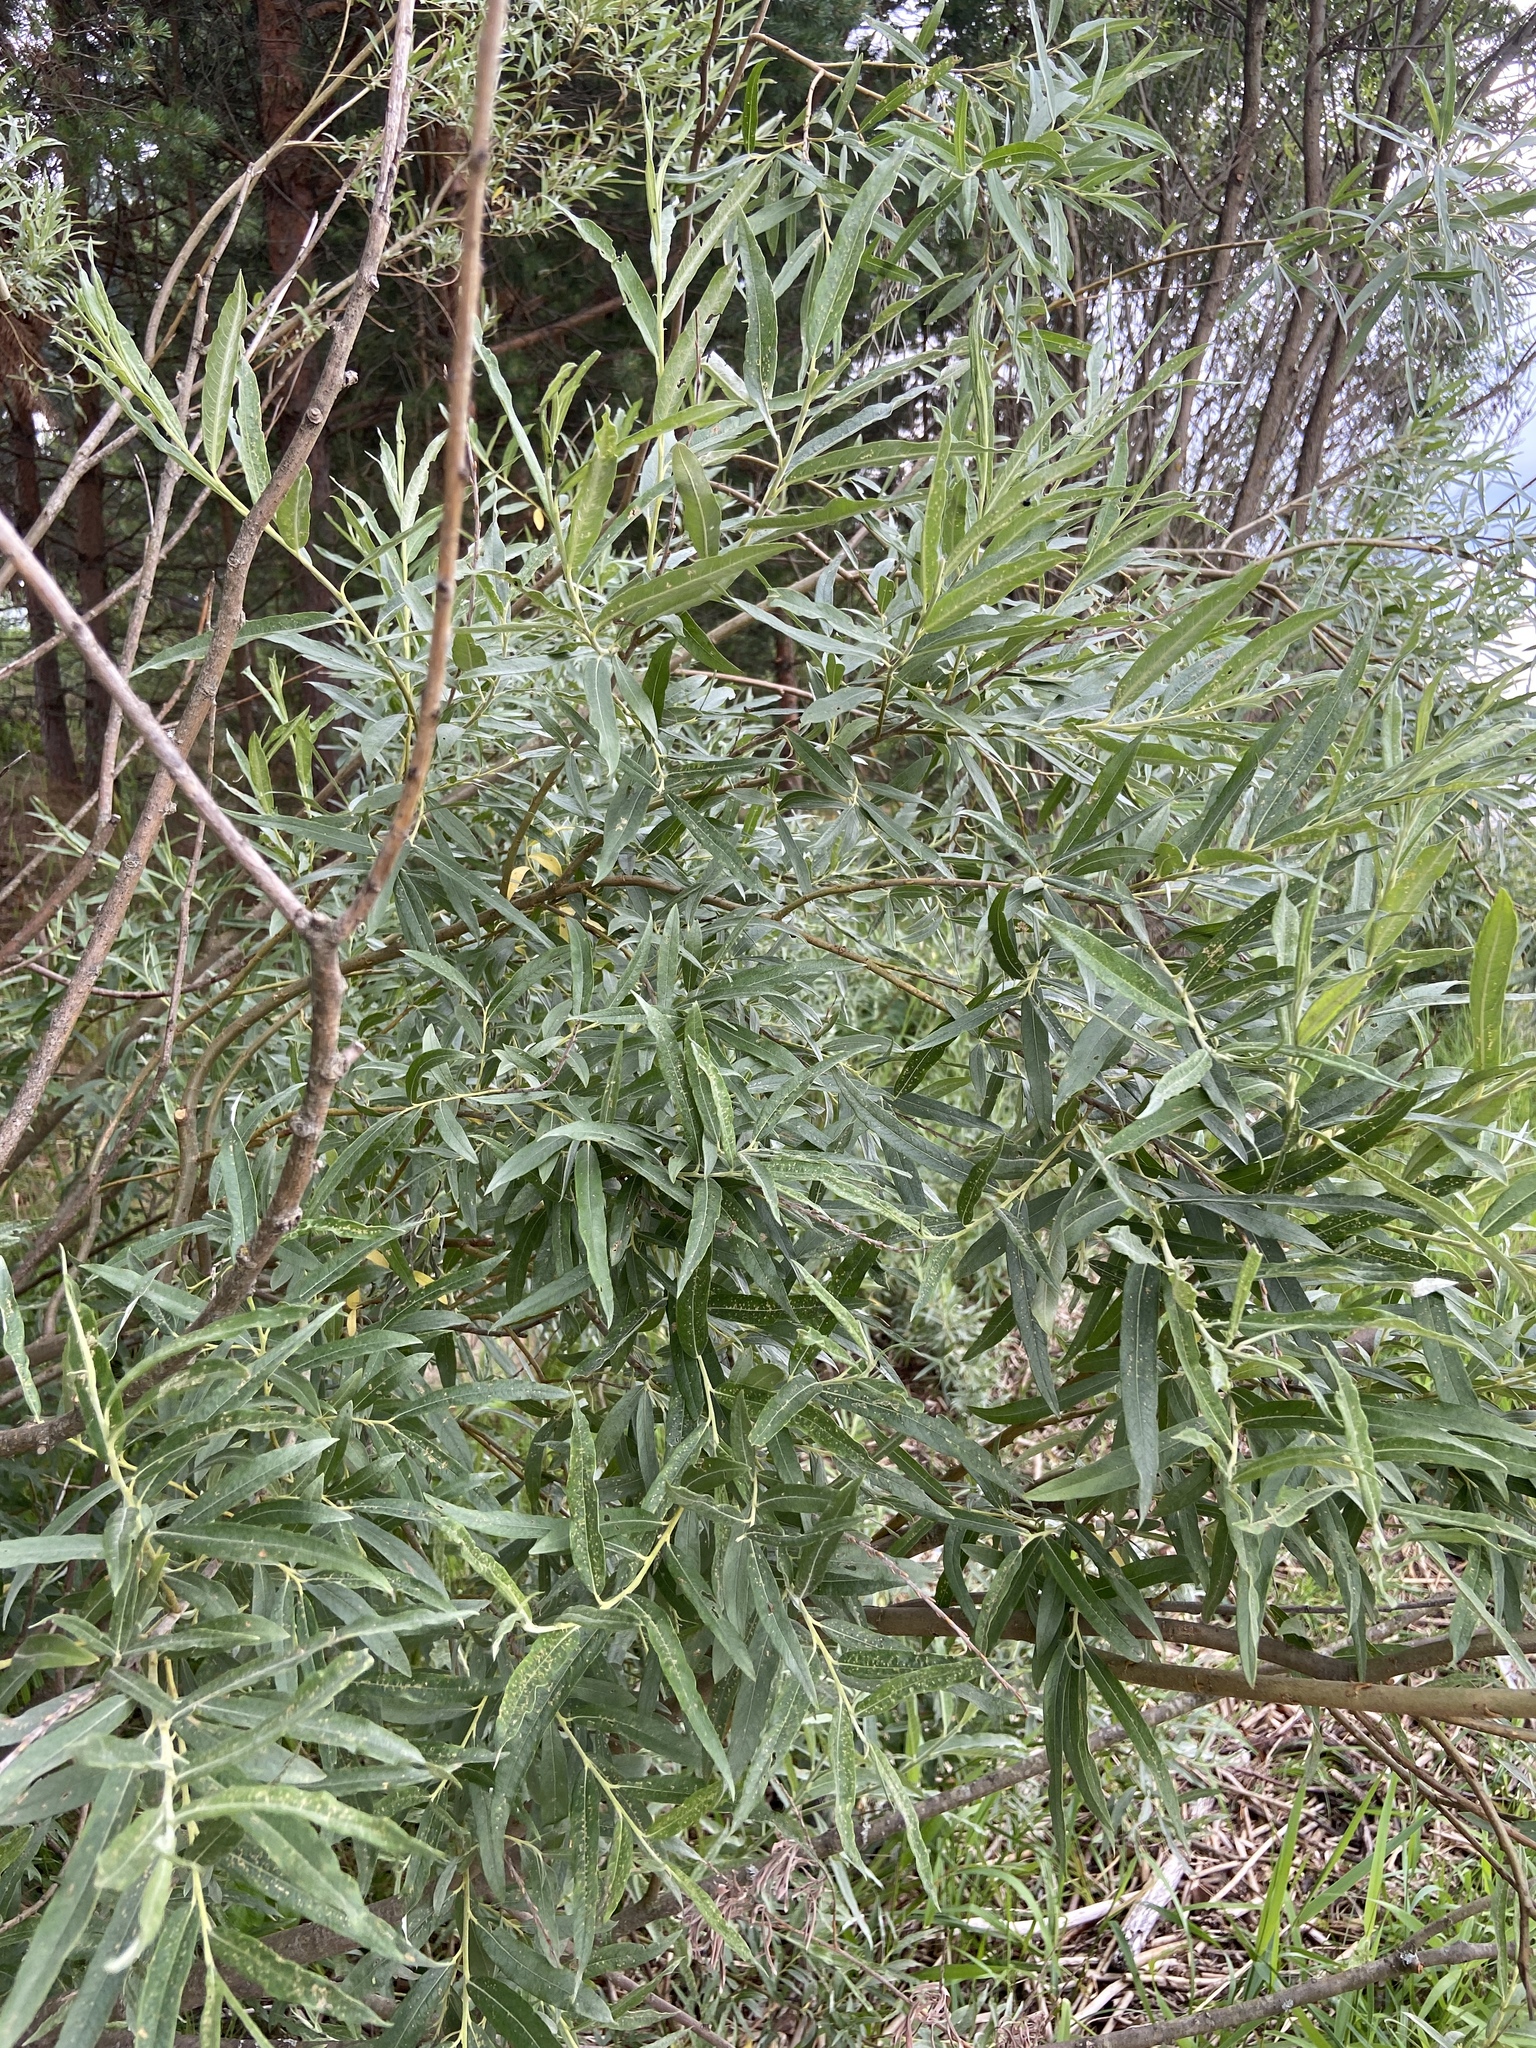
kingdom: Plantae
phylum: Tracheophyta
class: Magnoliopsida
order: Malpighiales
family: Salicaceae
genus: Salix
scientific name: Salix viminalis
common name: Osier
